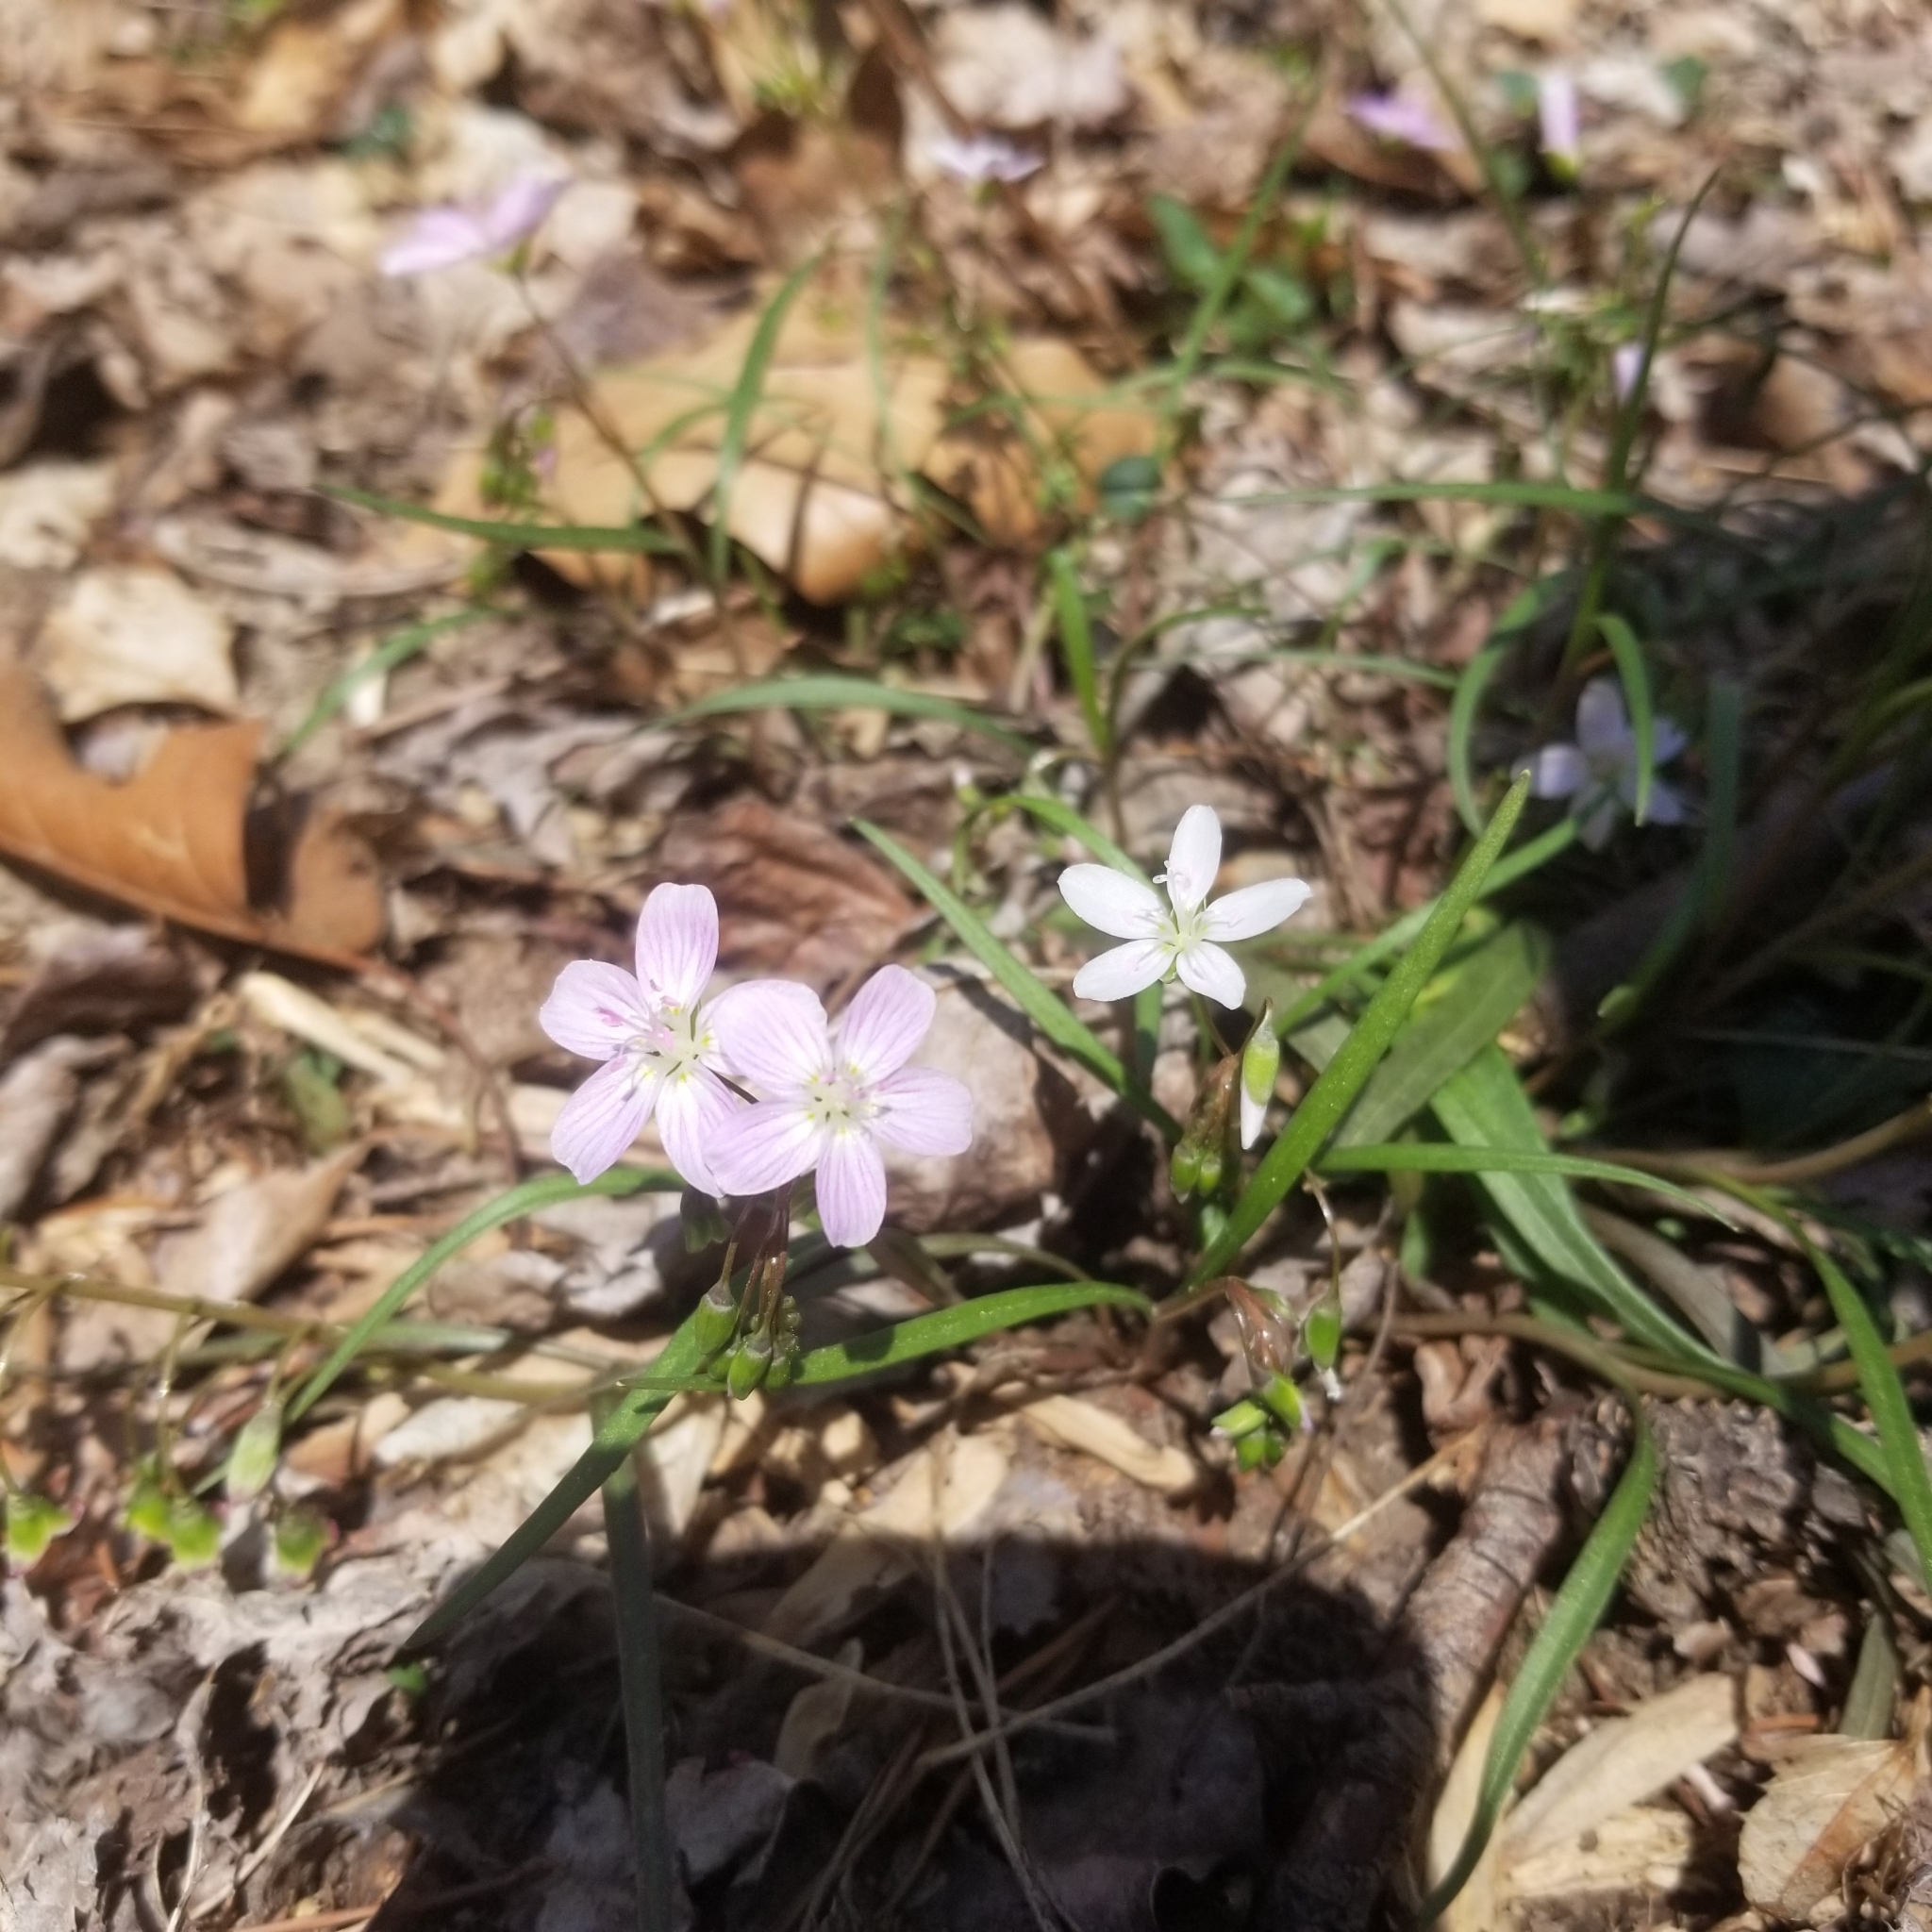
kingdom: Plantae
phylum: Tracheophyta
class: Magnoliopsida
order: Caryophyllales
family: Montiaceae
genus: Claytonia
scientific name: Claytonia virginica
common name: Virginia springbeauty
